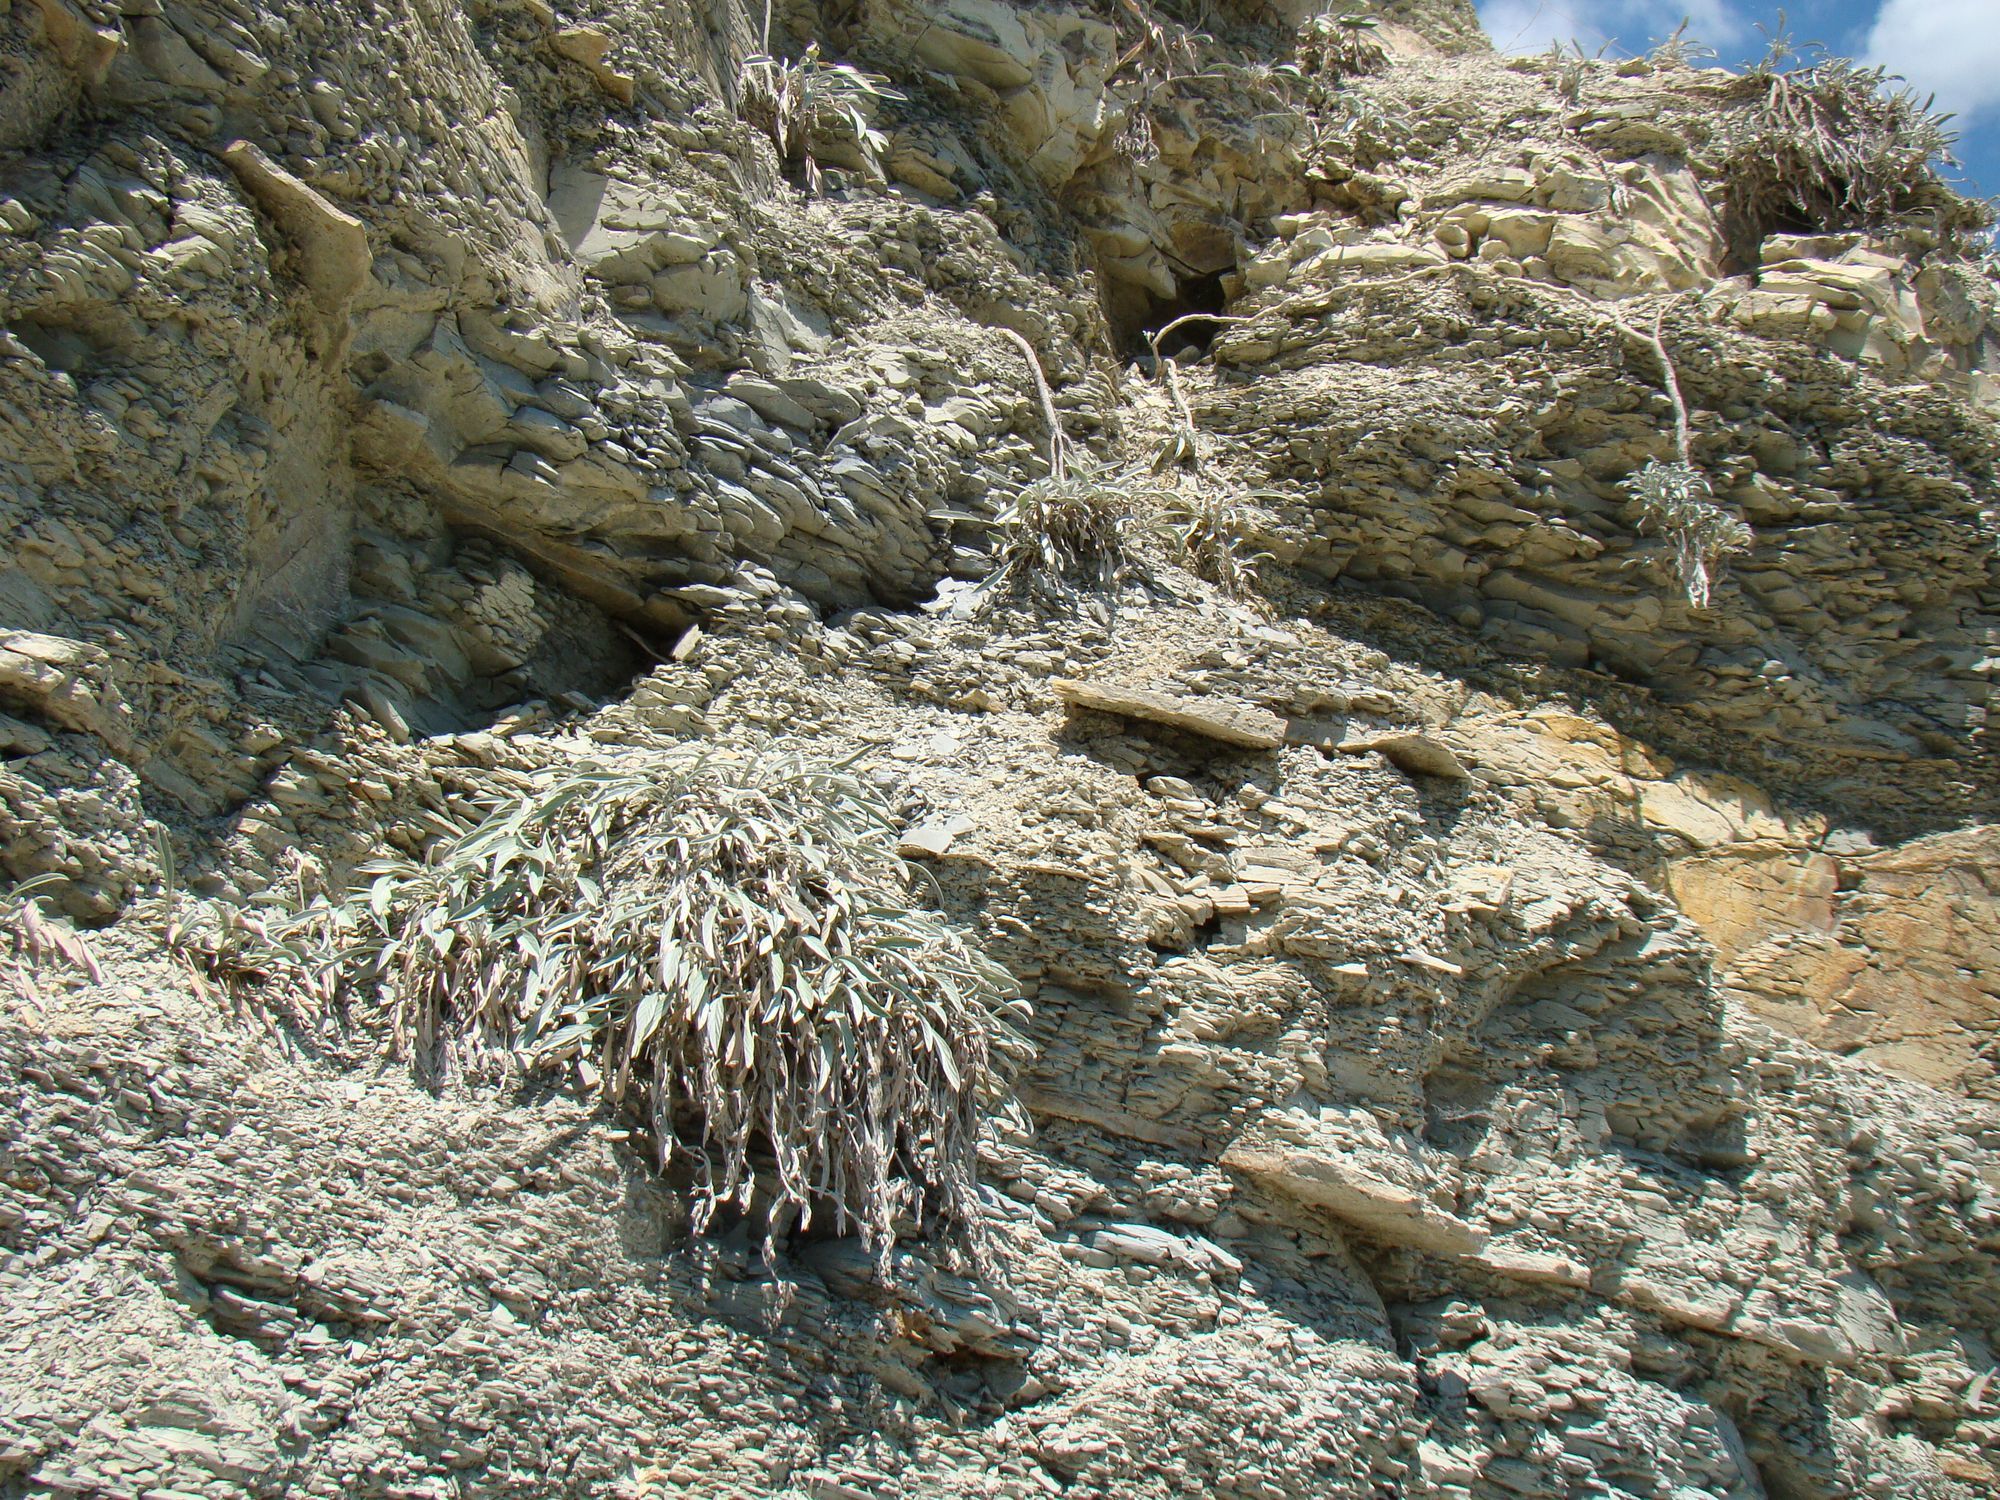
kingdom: Plantae
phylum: Tracheophyta
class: Magnoliopsida
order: Solanales
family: Convolvulaceae
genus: Convolvulus
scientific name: Convolvulus lineatus
